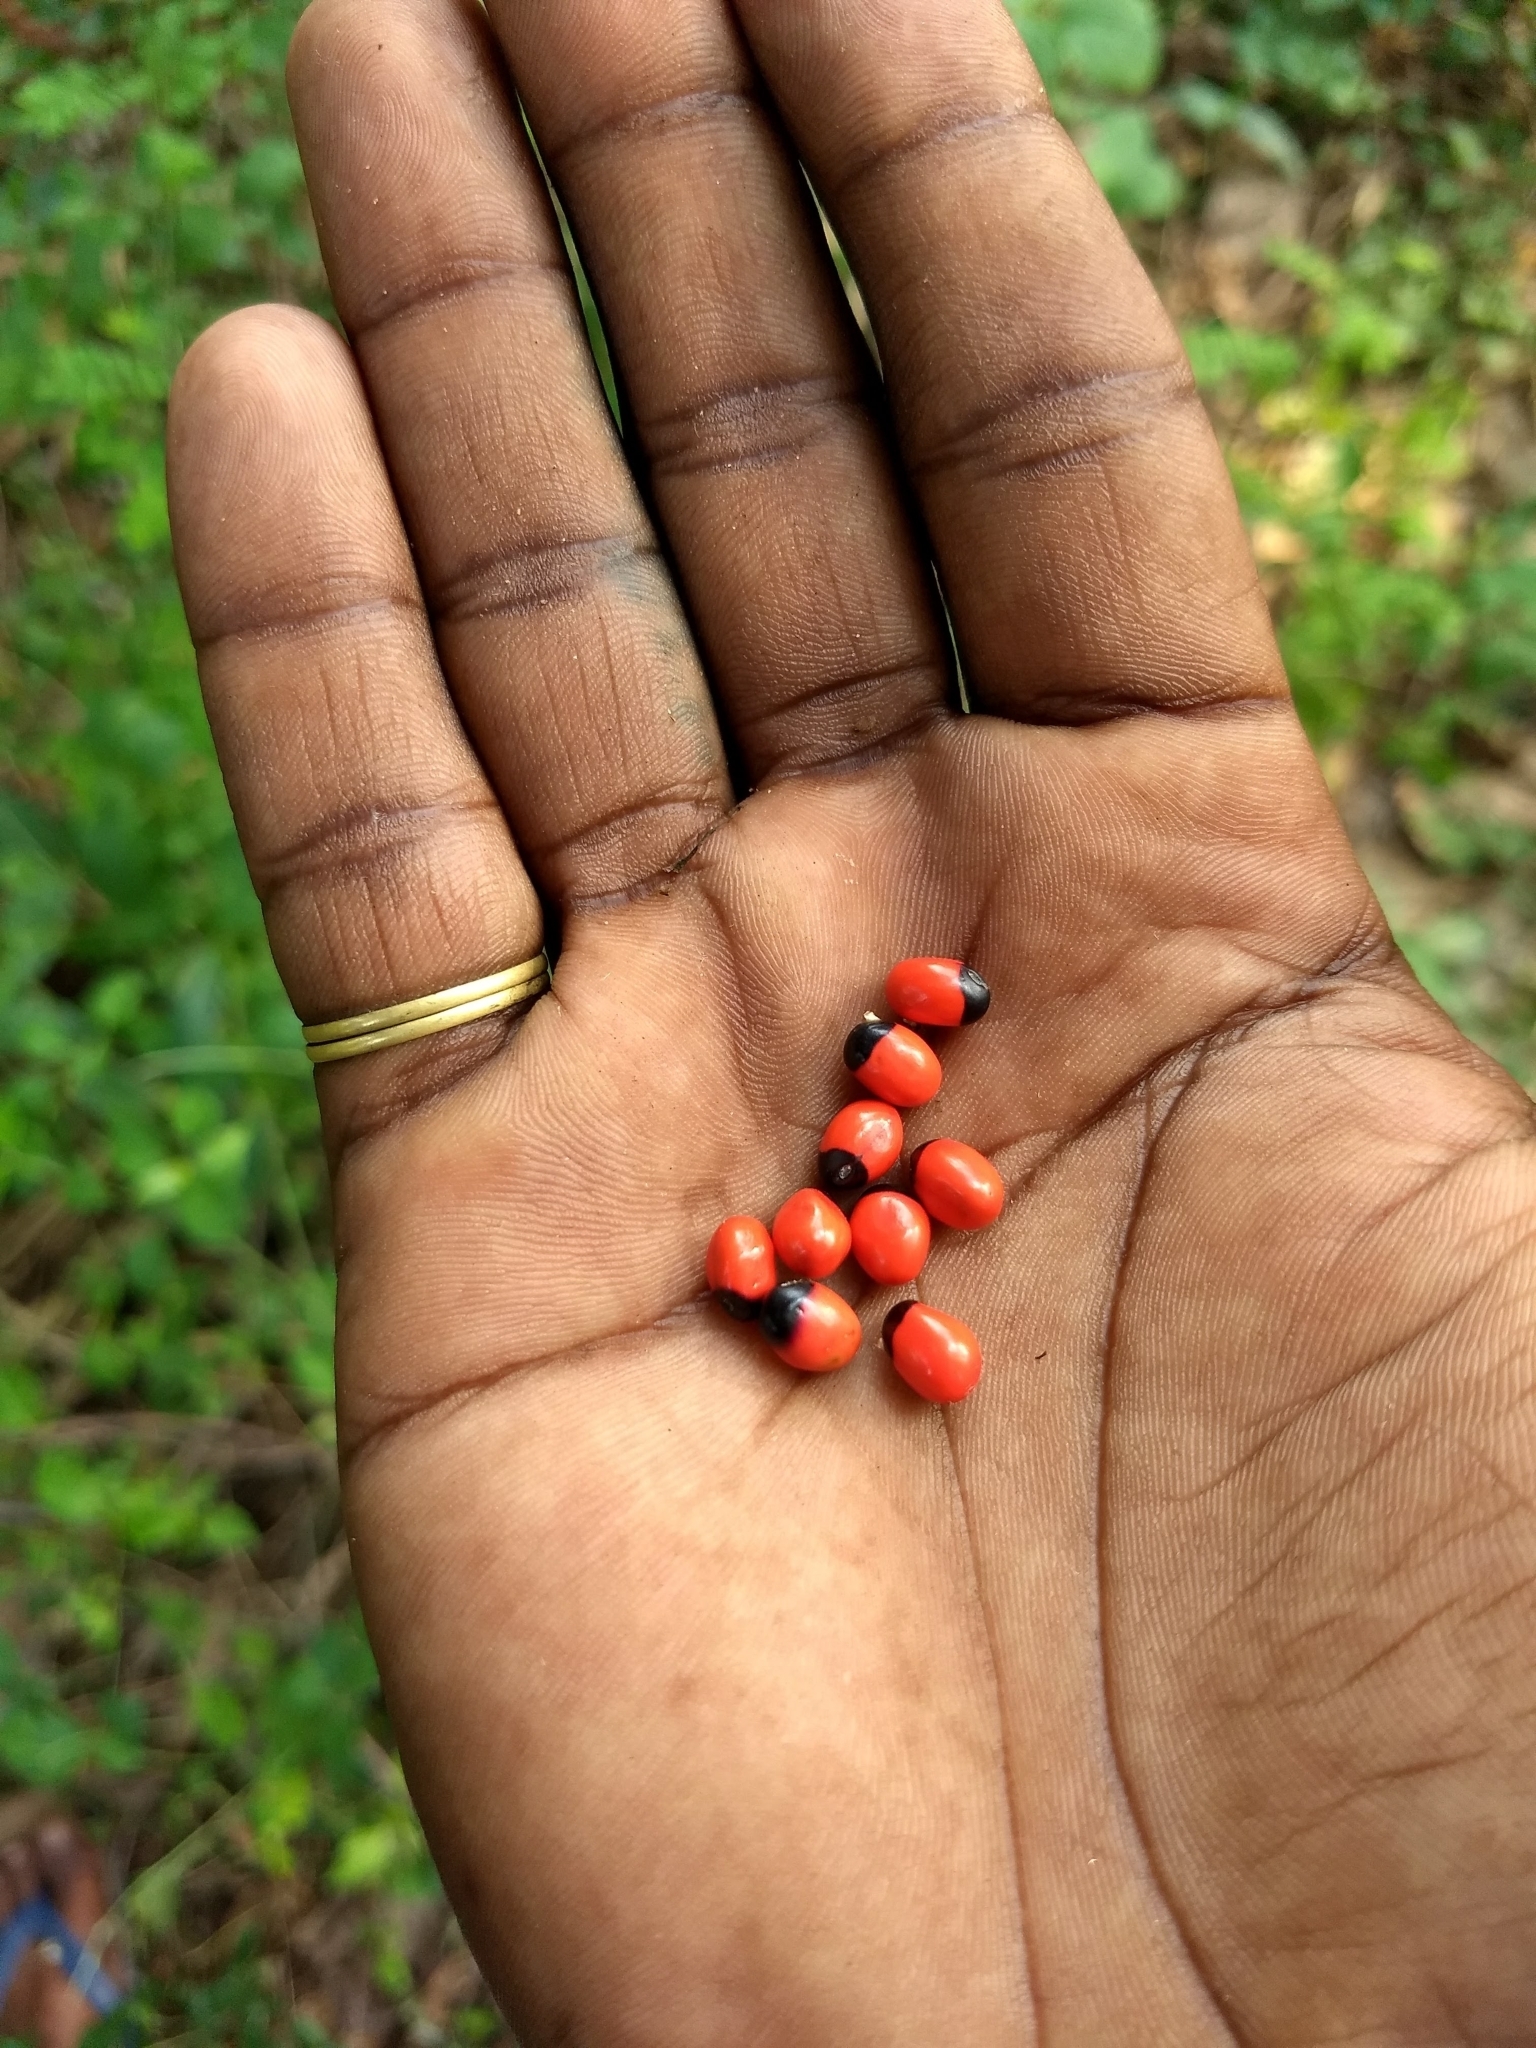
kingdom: Plantae
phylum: Tracheophyta
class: Magnoliopsida
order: Fabales
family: Fabaceae
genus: Abrus
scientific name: Abrus precatorius
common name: Rosarypea
